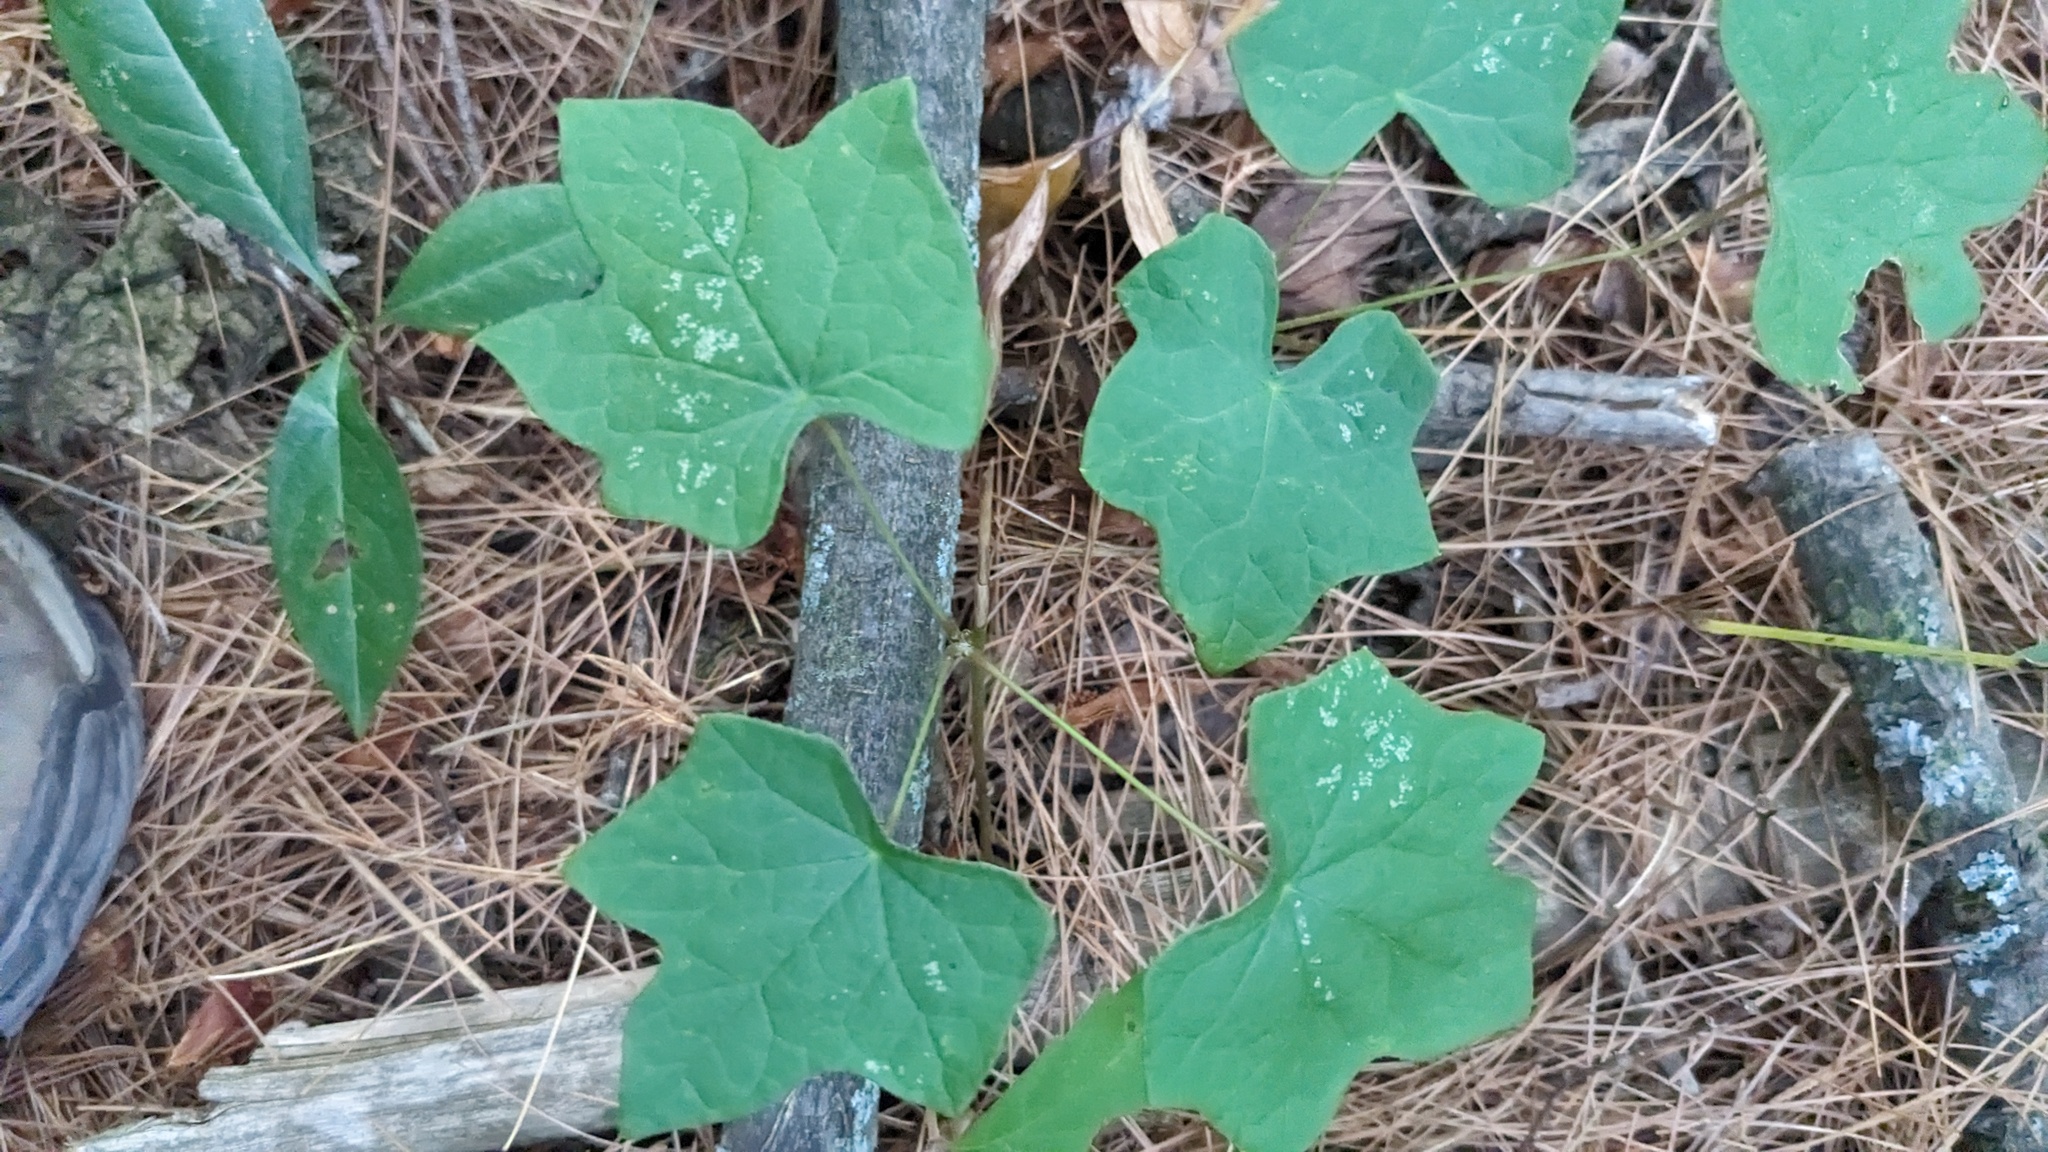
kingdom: Plantae
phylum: Tracheophyta
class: Magnoliopsida
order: Ranunculales
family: Menispermaceae
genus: Menispermum
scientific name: Menispermum canadense
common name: Moonseed
